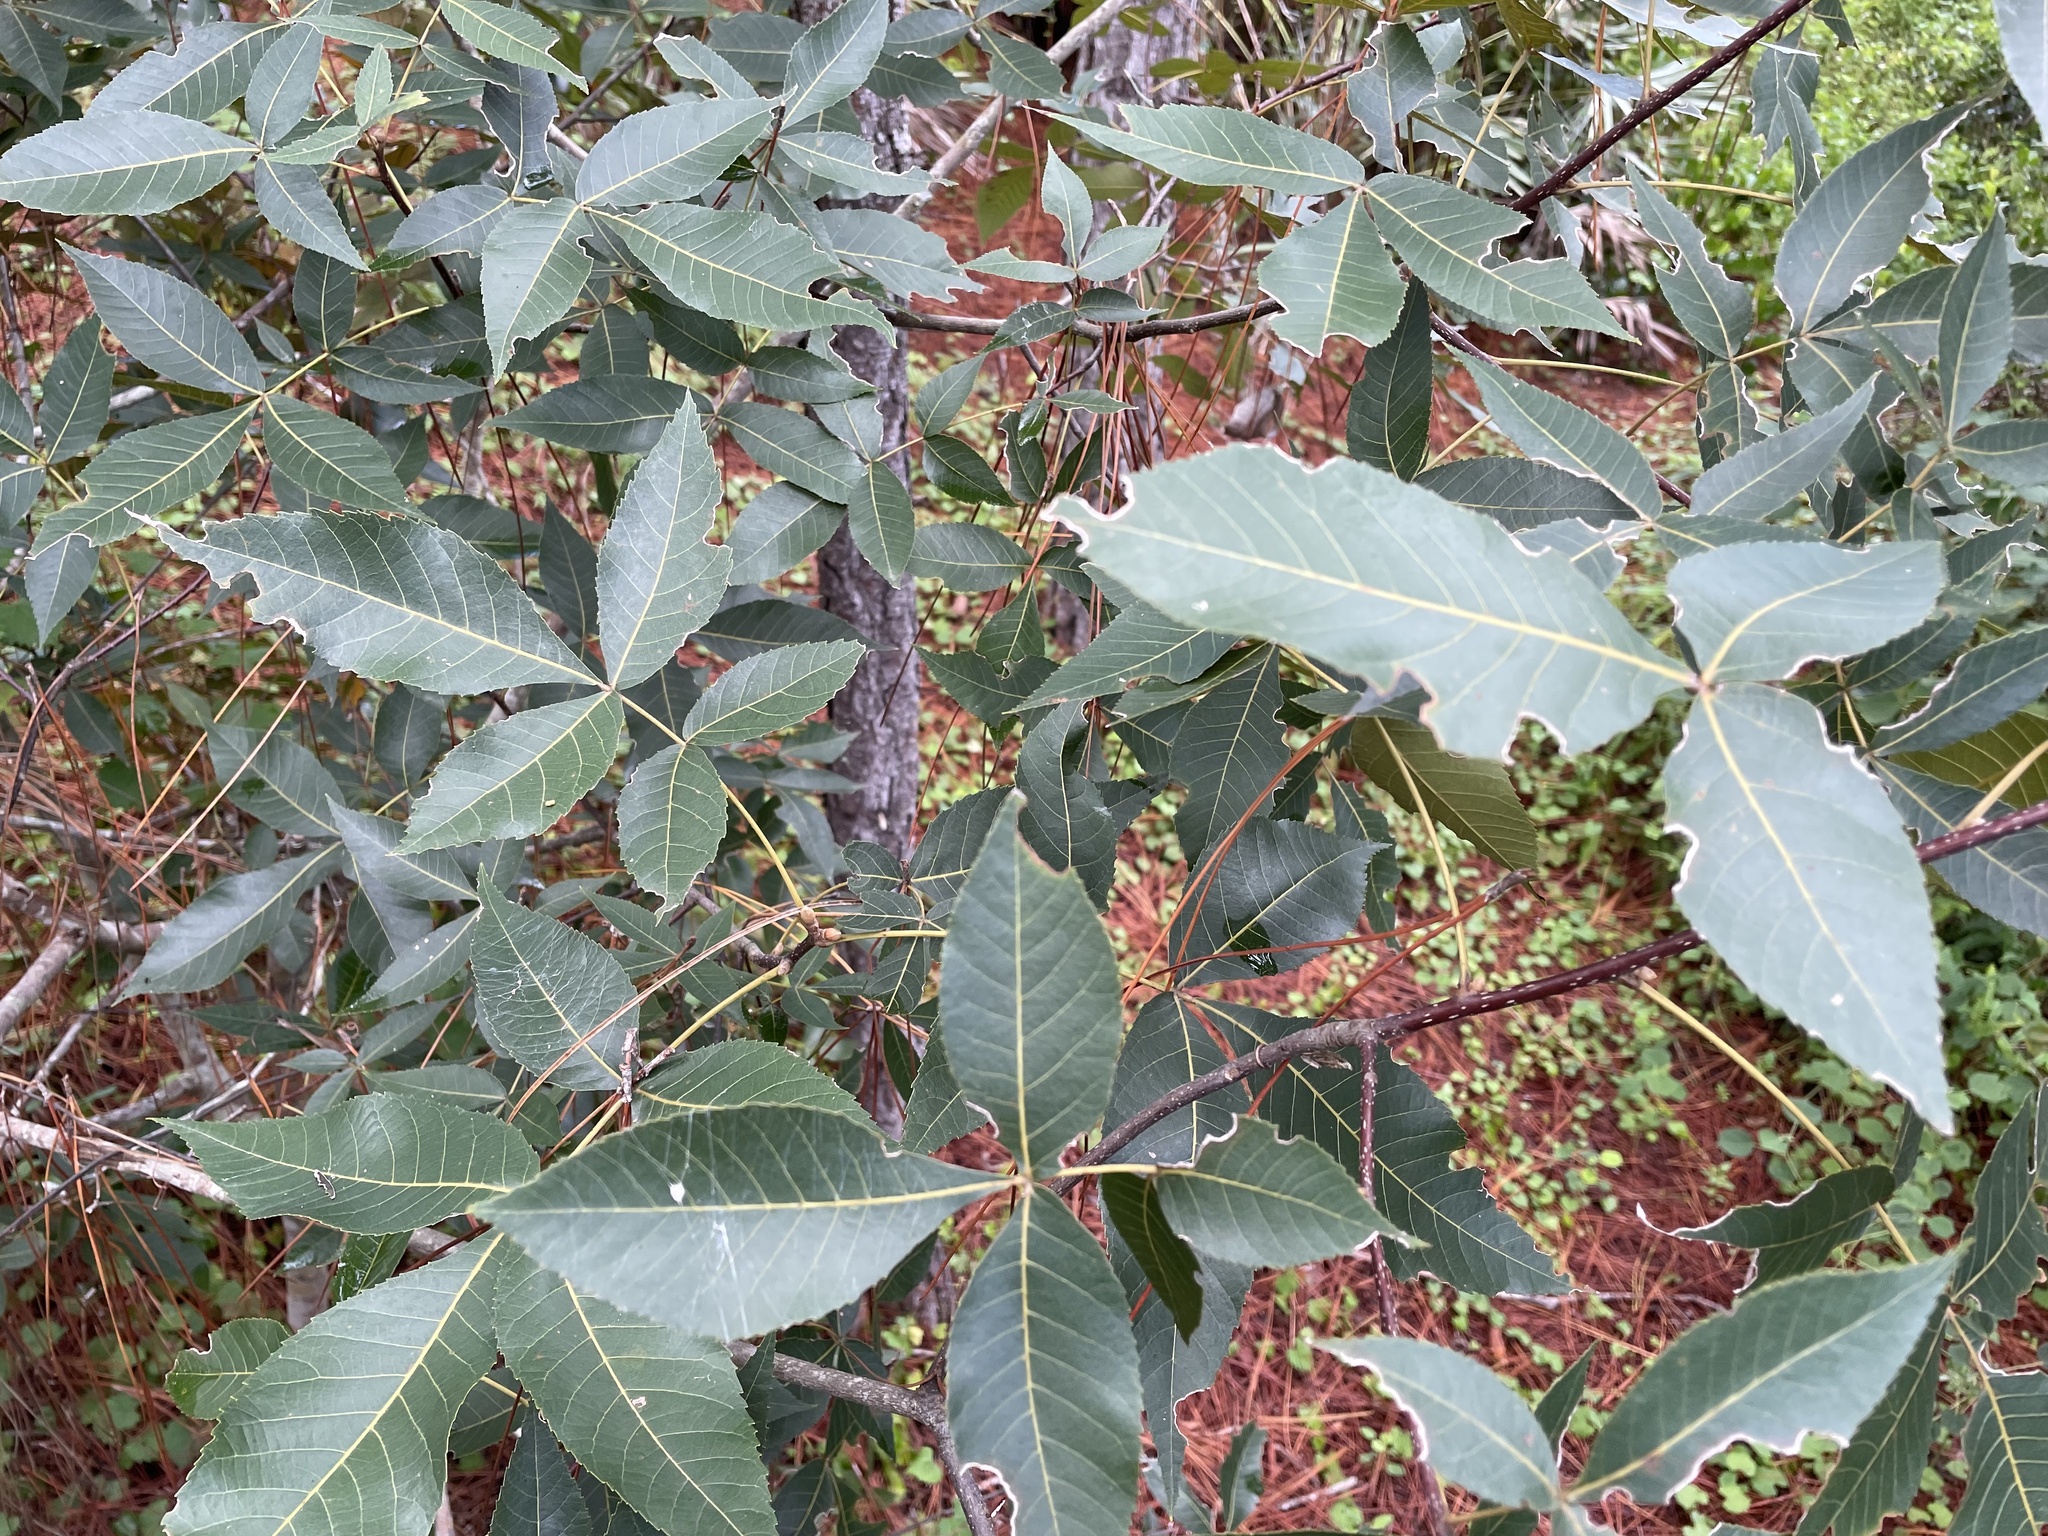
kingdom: Plantae
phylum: Tracheophyta
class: Magnoliopsida
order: Fagales
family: Juglandaceae
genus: Carya
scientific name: Carya floridana
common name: Scrub hickory
